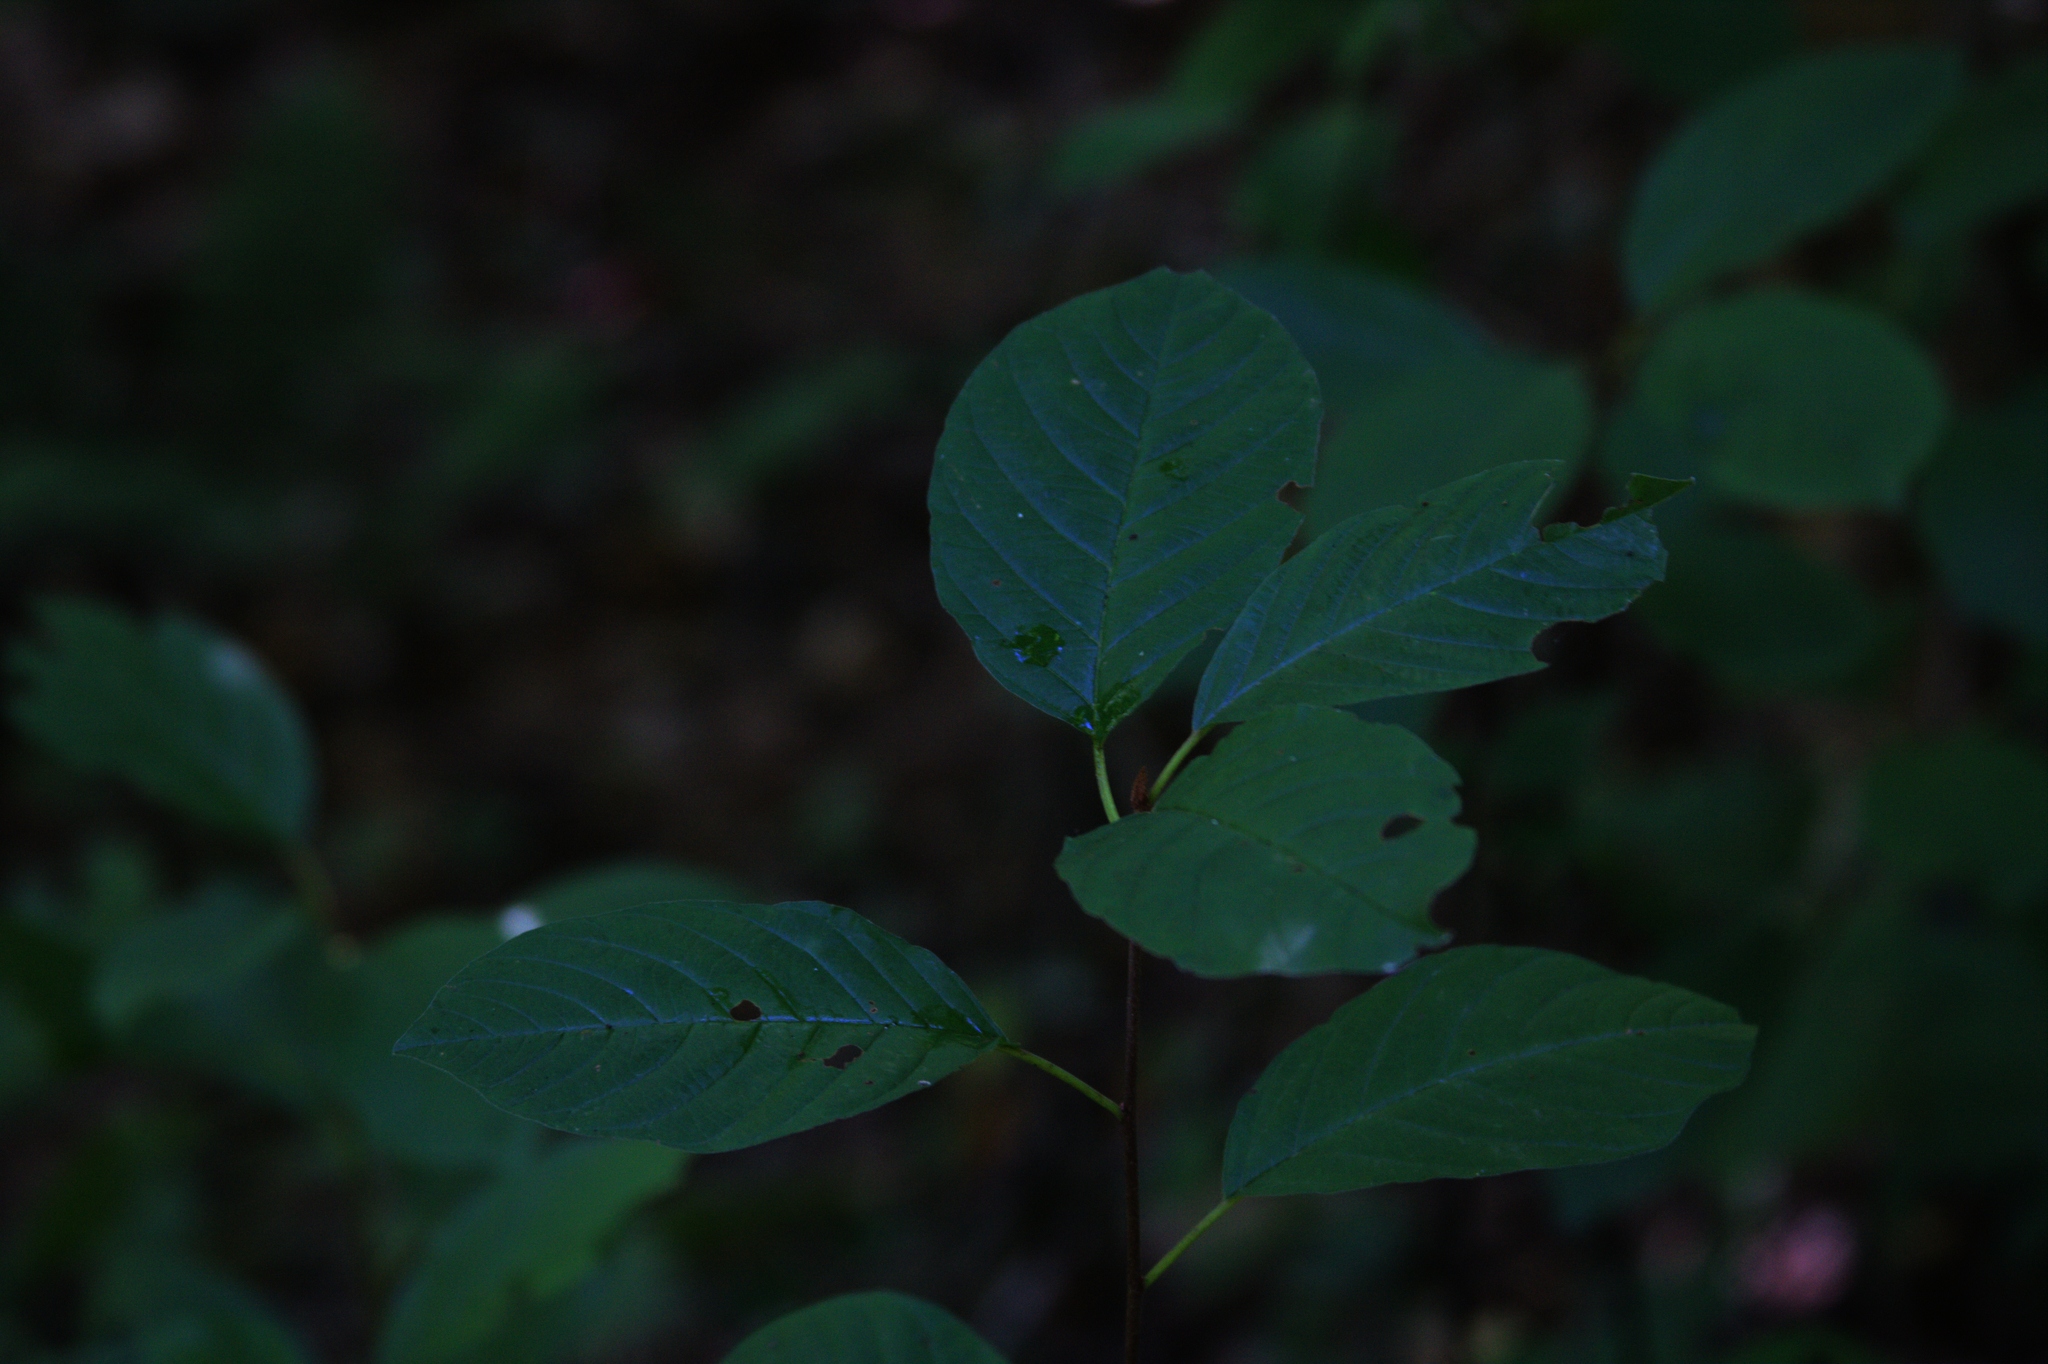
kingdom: Plantae
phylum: Tracheophyta
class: Magnoliopsida
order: Rosales
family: Rhamnaceae
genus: Frangula
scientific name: Frangula alnus
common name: Alder buckthorn
